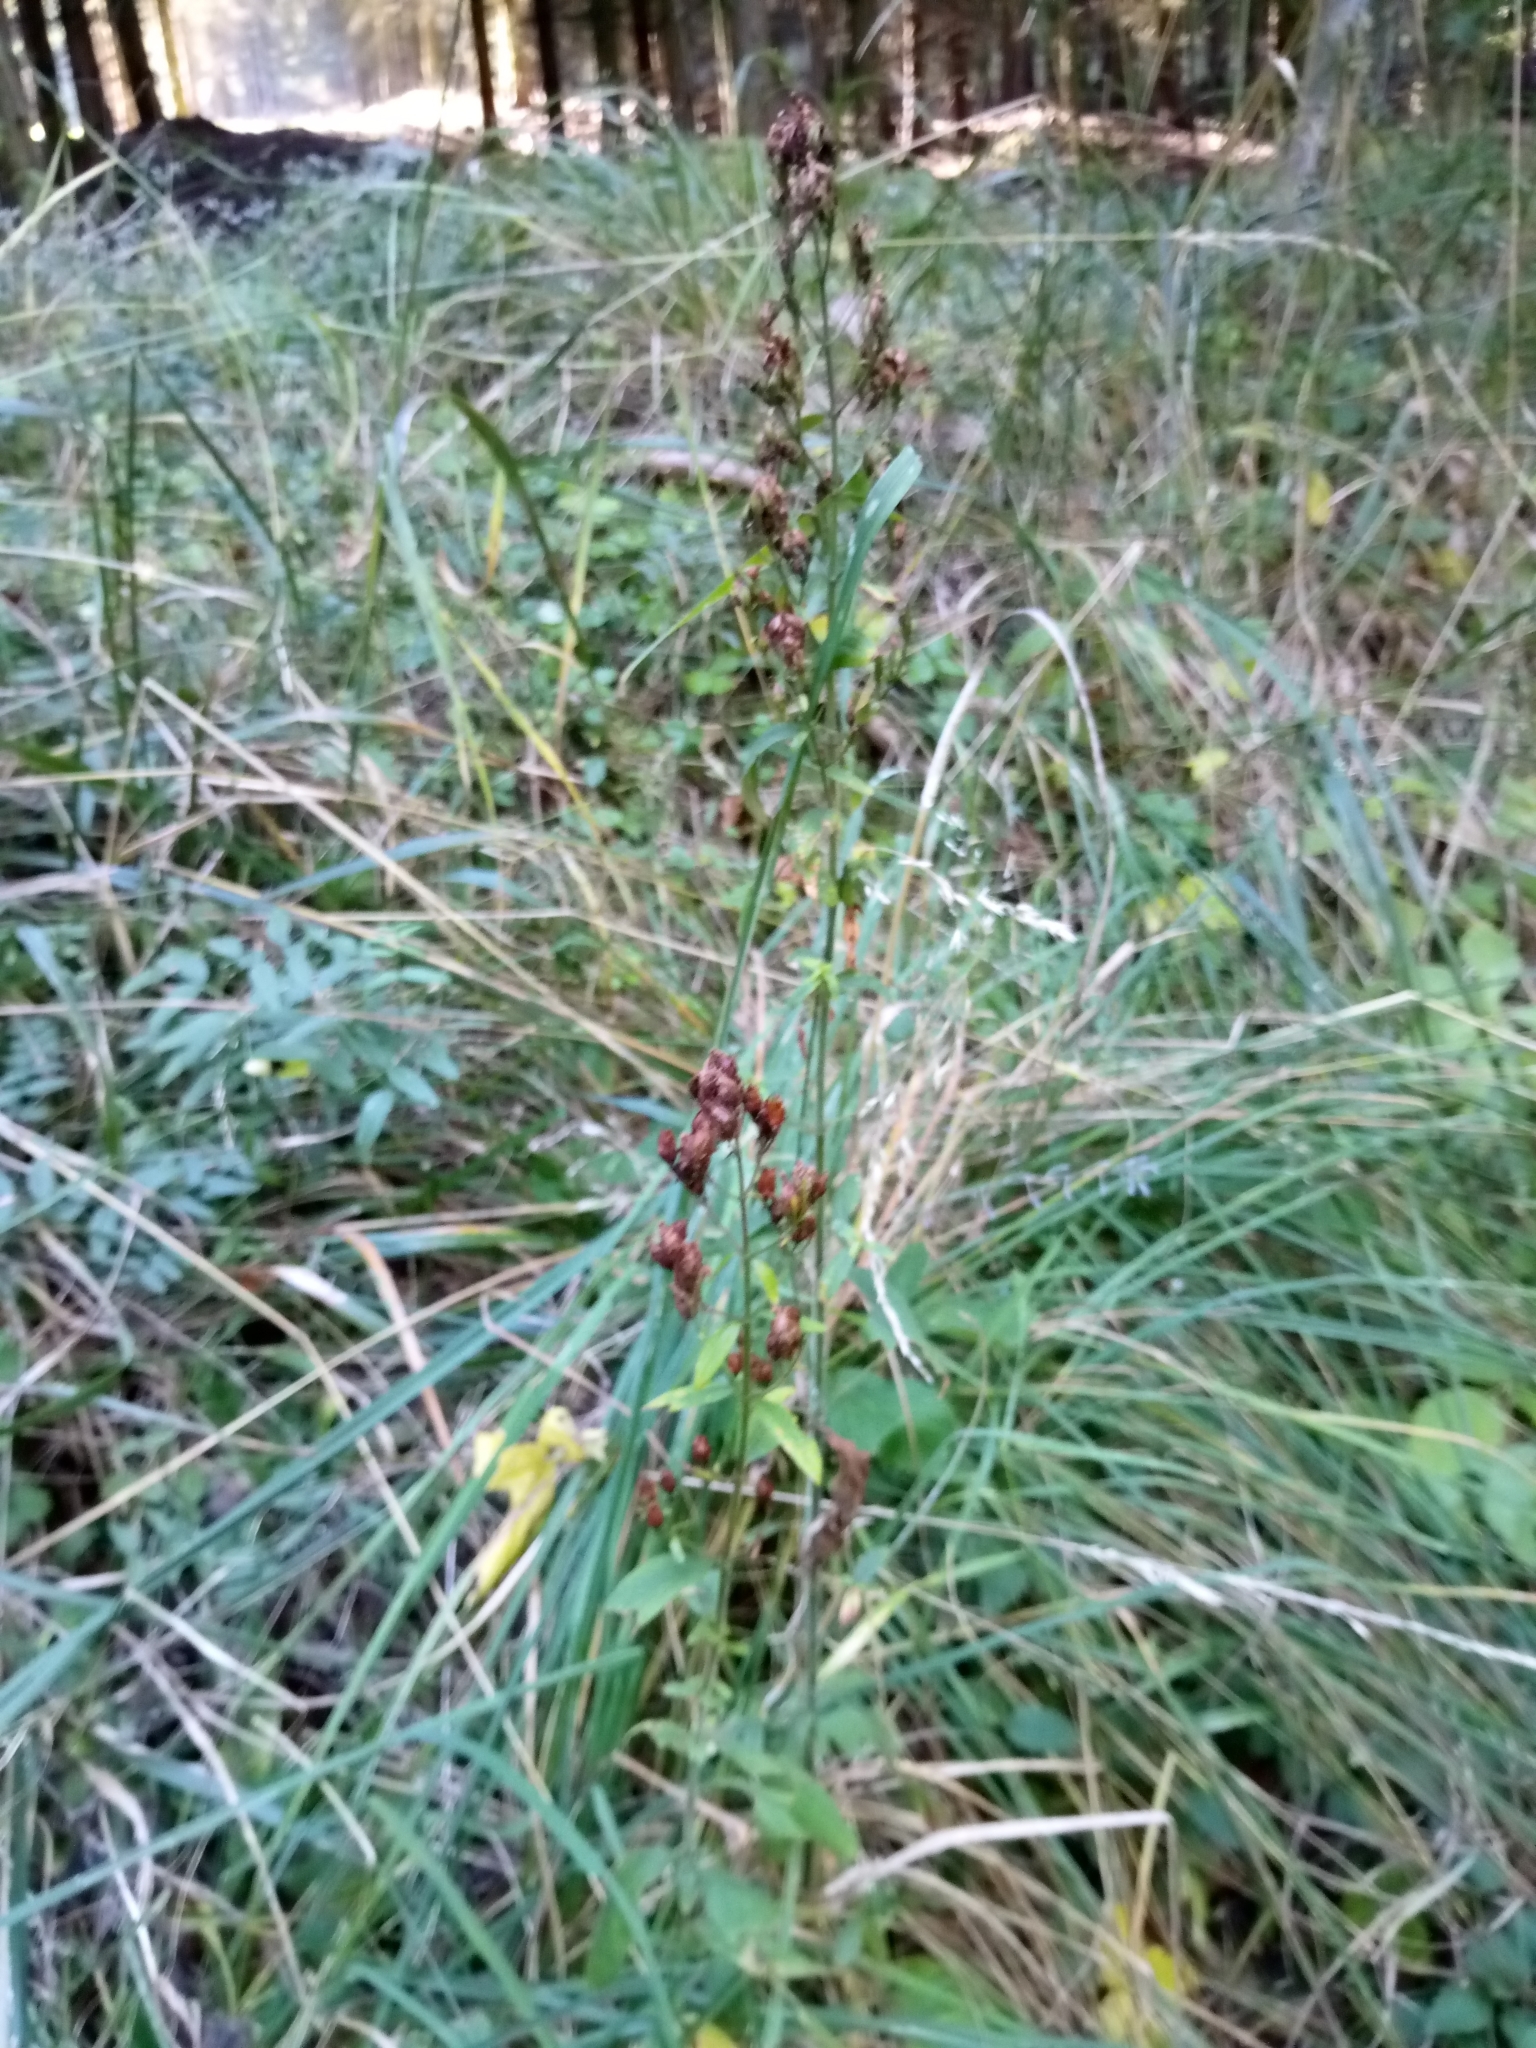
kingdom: Plantae
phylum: Tracheophyta
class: Magnoliopsida
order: Malpighiales
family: Hypericaceae
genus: Hypericum
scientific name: Hypericum hirsutum
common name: Hairy st. john's-wort
